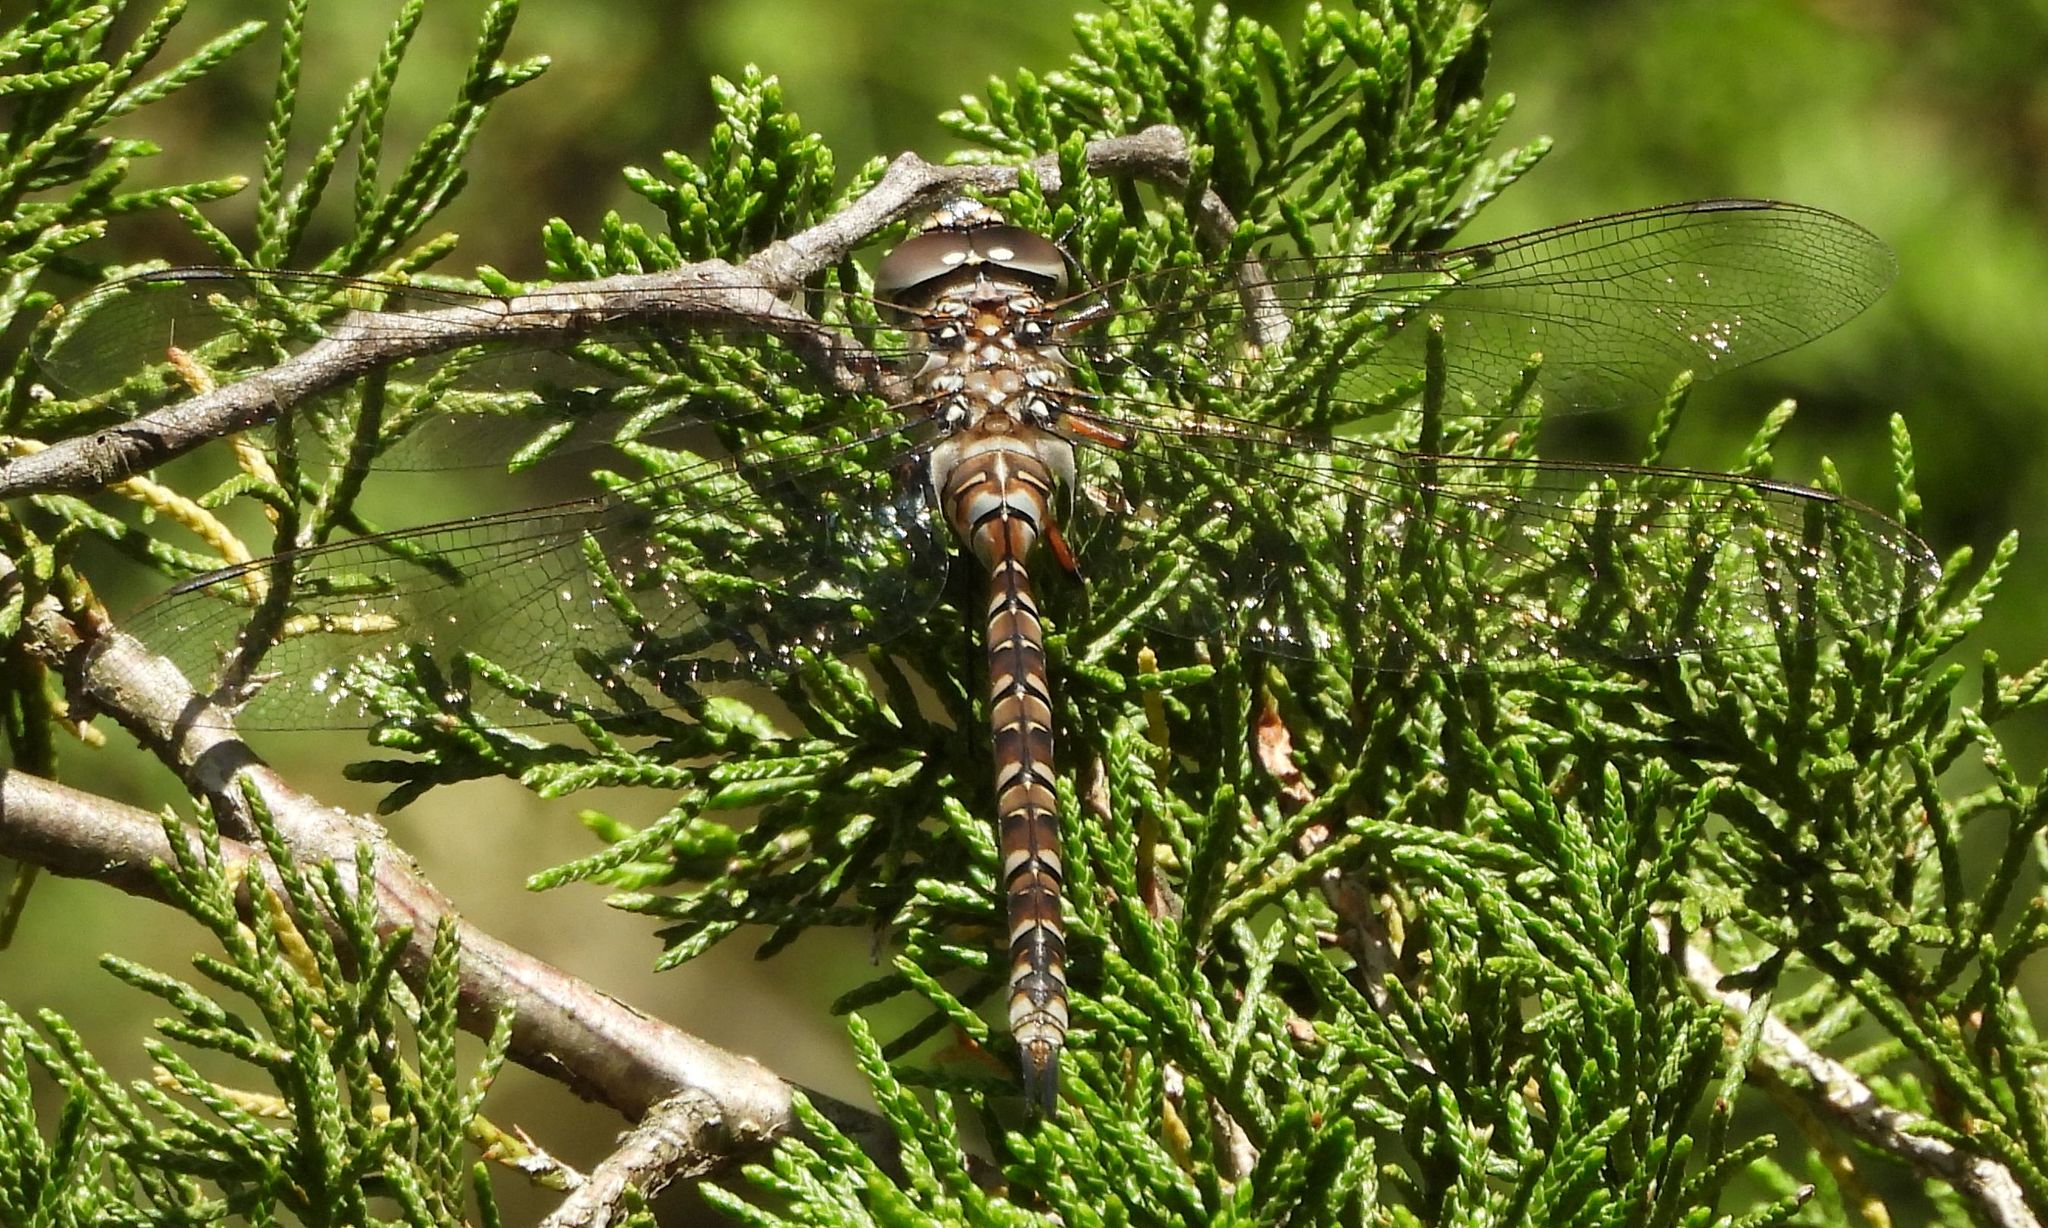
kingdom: Animalia
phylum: Arthropoda
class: Insecta
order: Odonata
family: Aeshnidae
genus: Aeshna
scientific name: Aeshna canadensis
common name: Canada darner
